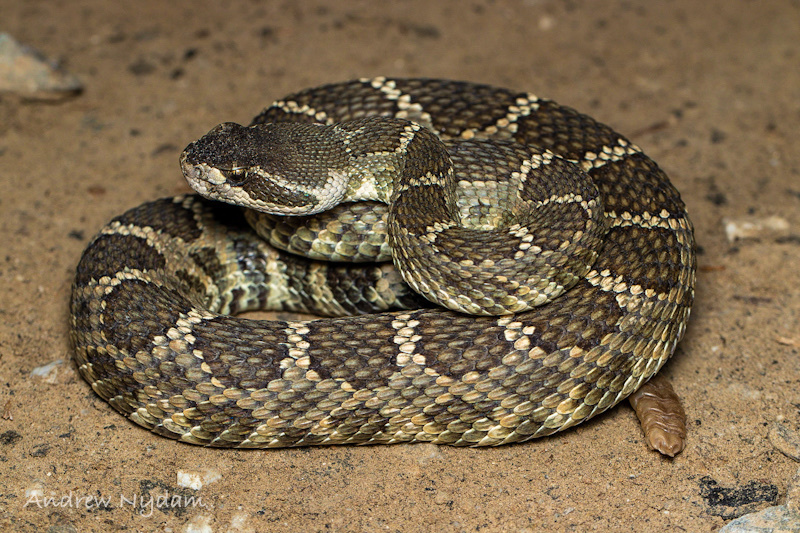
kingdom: Animalia
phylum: Chordata
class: Squamata
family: Viperidae
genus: Crotalus
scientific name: Crotalus oreganus
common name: Abyssus
